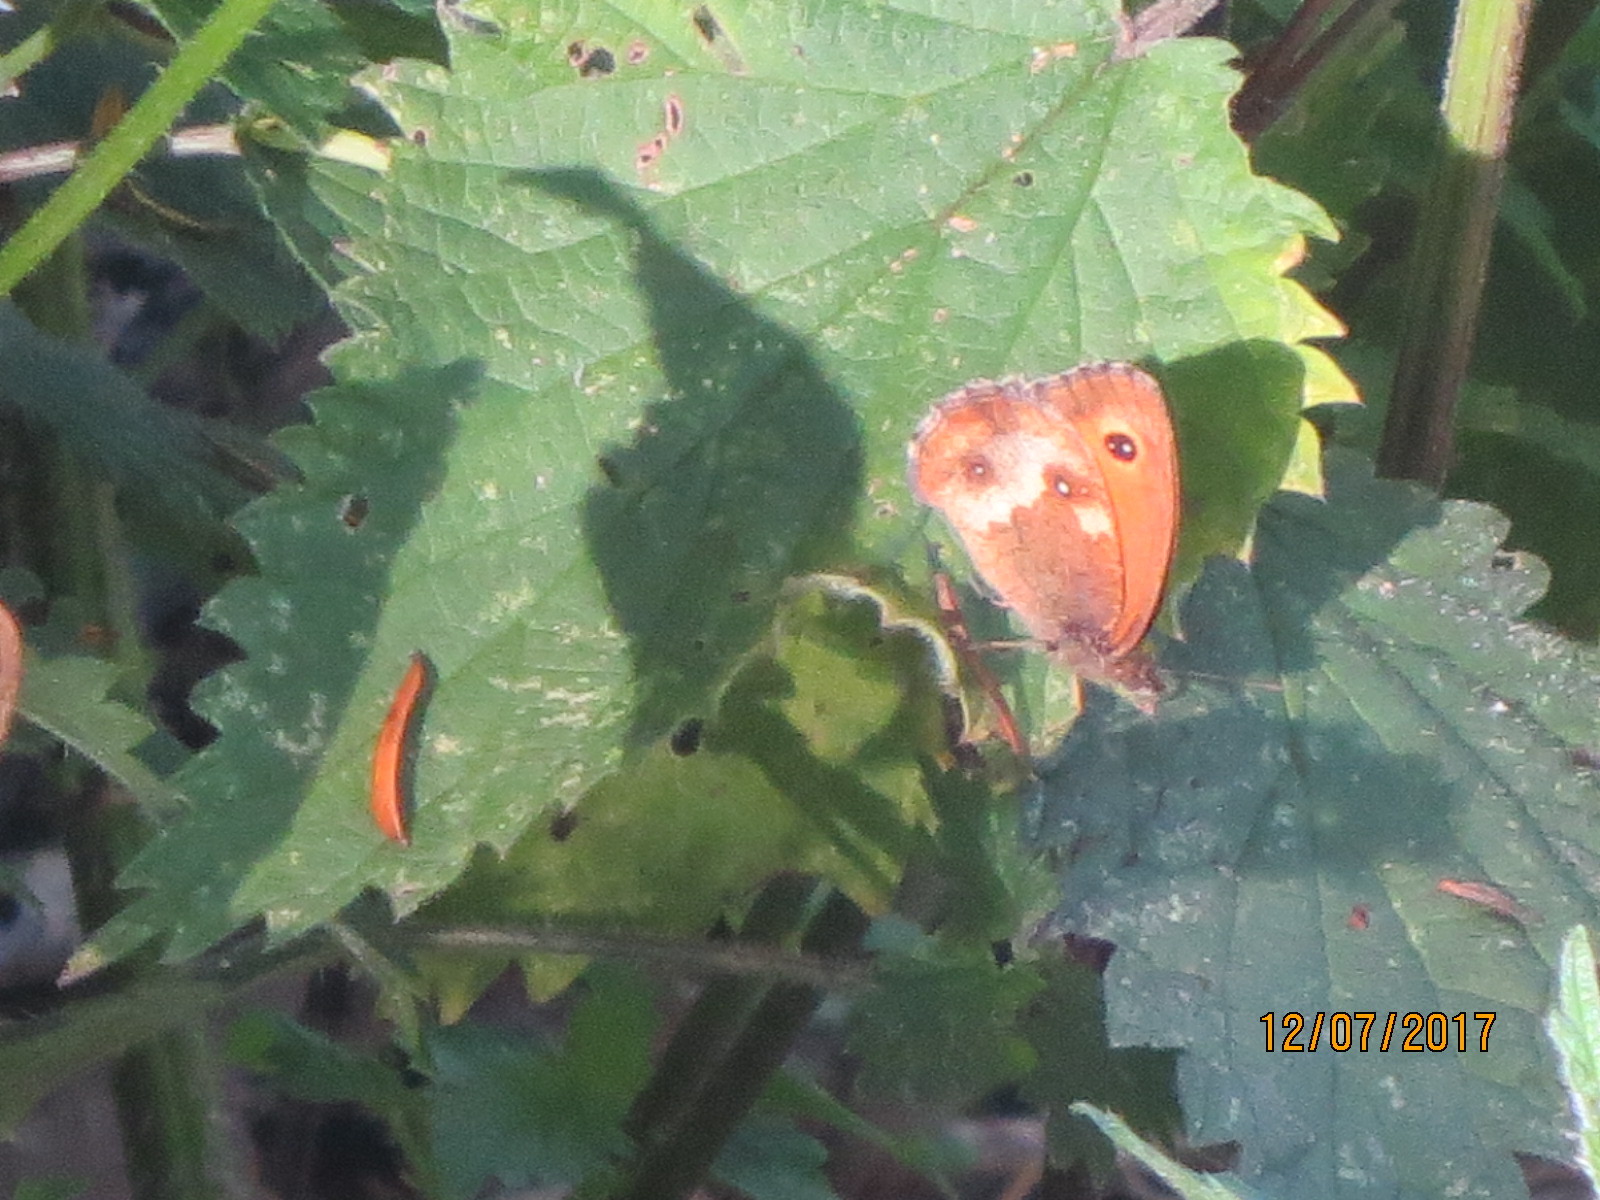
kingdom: Animalia
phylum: Arthropoda
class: Insecta
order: Lepidoptera
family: Nymphalidae
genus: Pyronia
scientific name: Pyronia tithonus
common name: Gatekeeper
